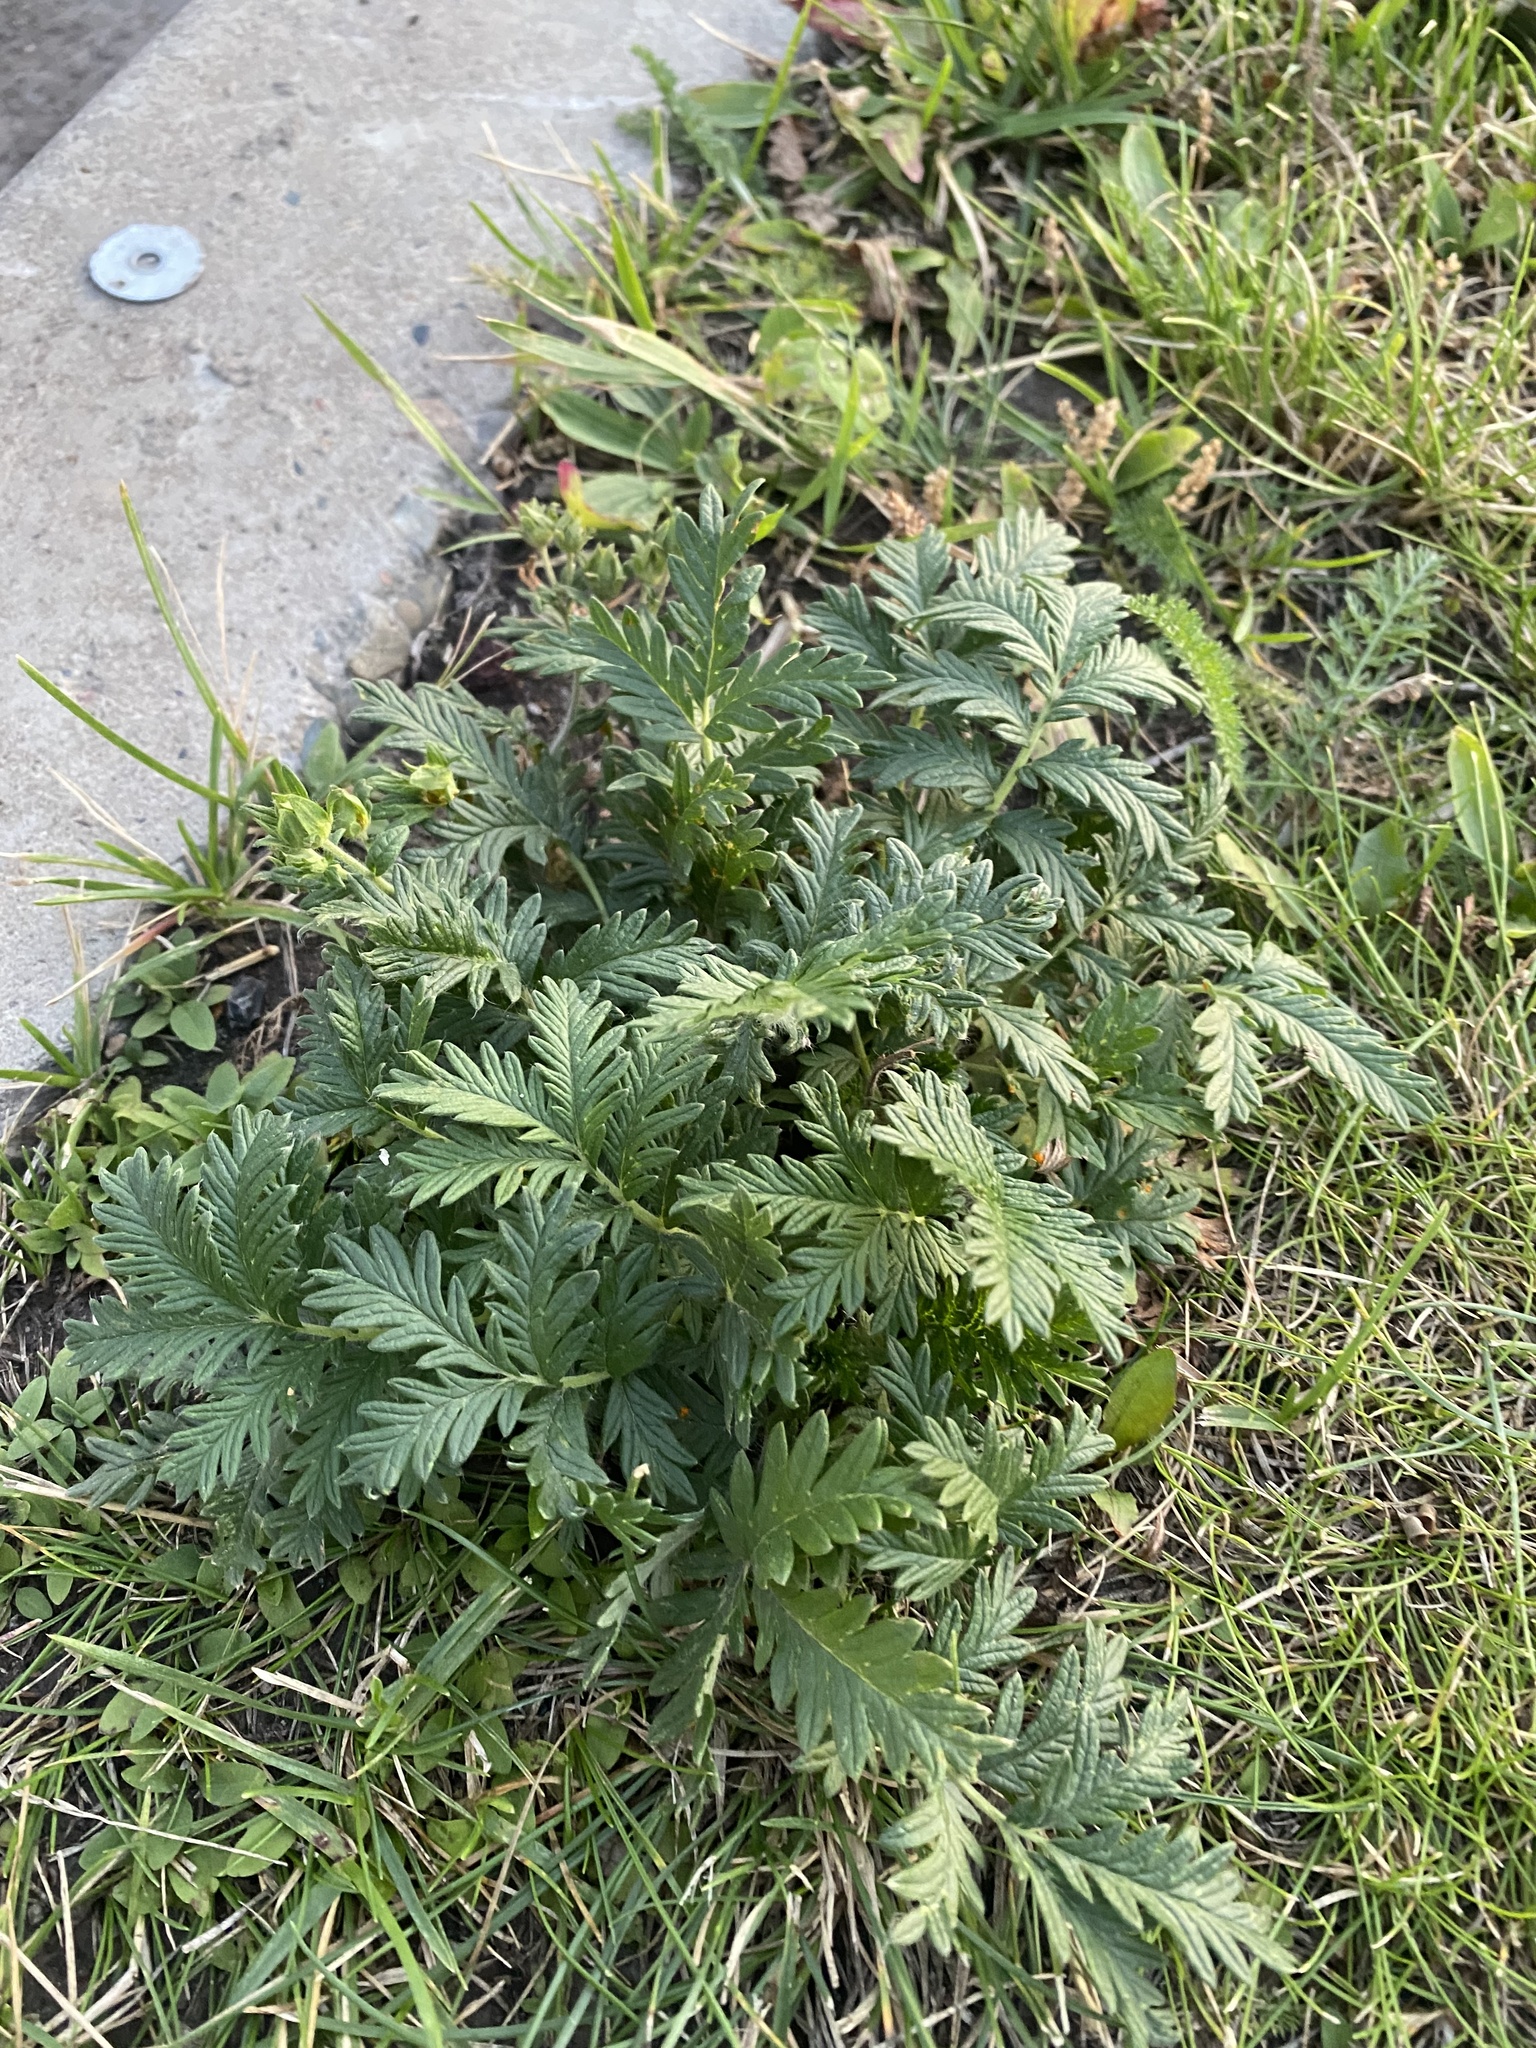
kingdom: Plantae
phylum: Tracheophyta
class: Magnoliopsida
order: Rosales
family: Rosaceae
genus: Potentilla
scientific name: Potentilla conferta
